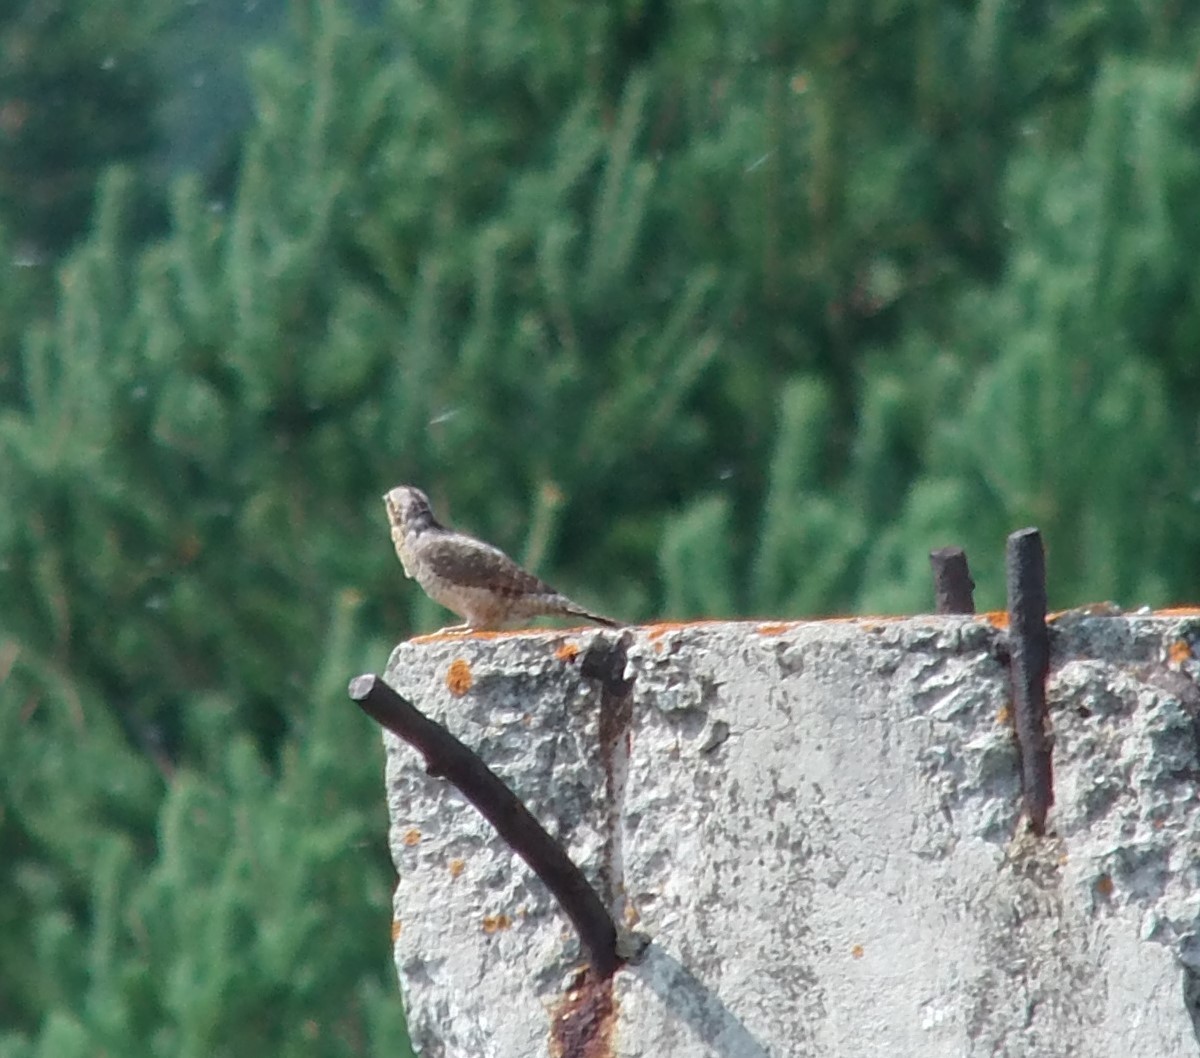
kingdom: Animalia
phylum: Chordata
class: Aves
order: Piciformes
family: Picidae
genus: Jynx
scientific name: Jynx torquilla
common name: Eurasian wryneck
